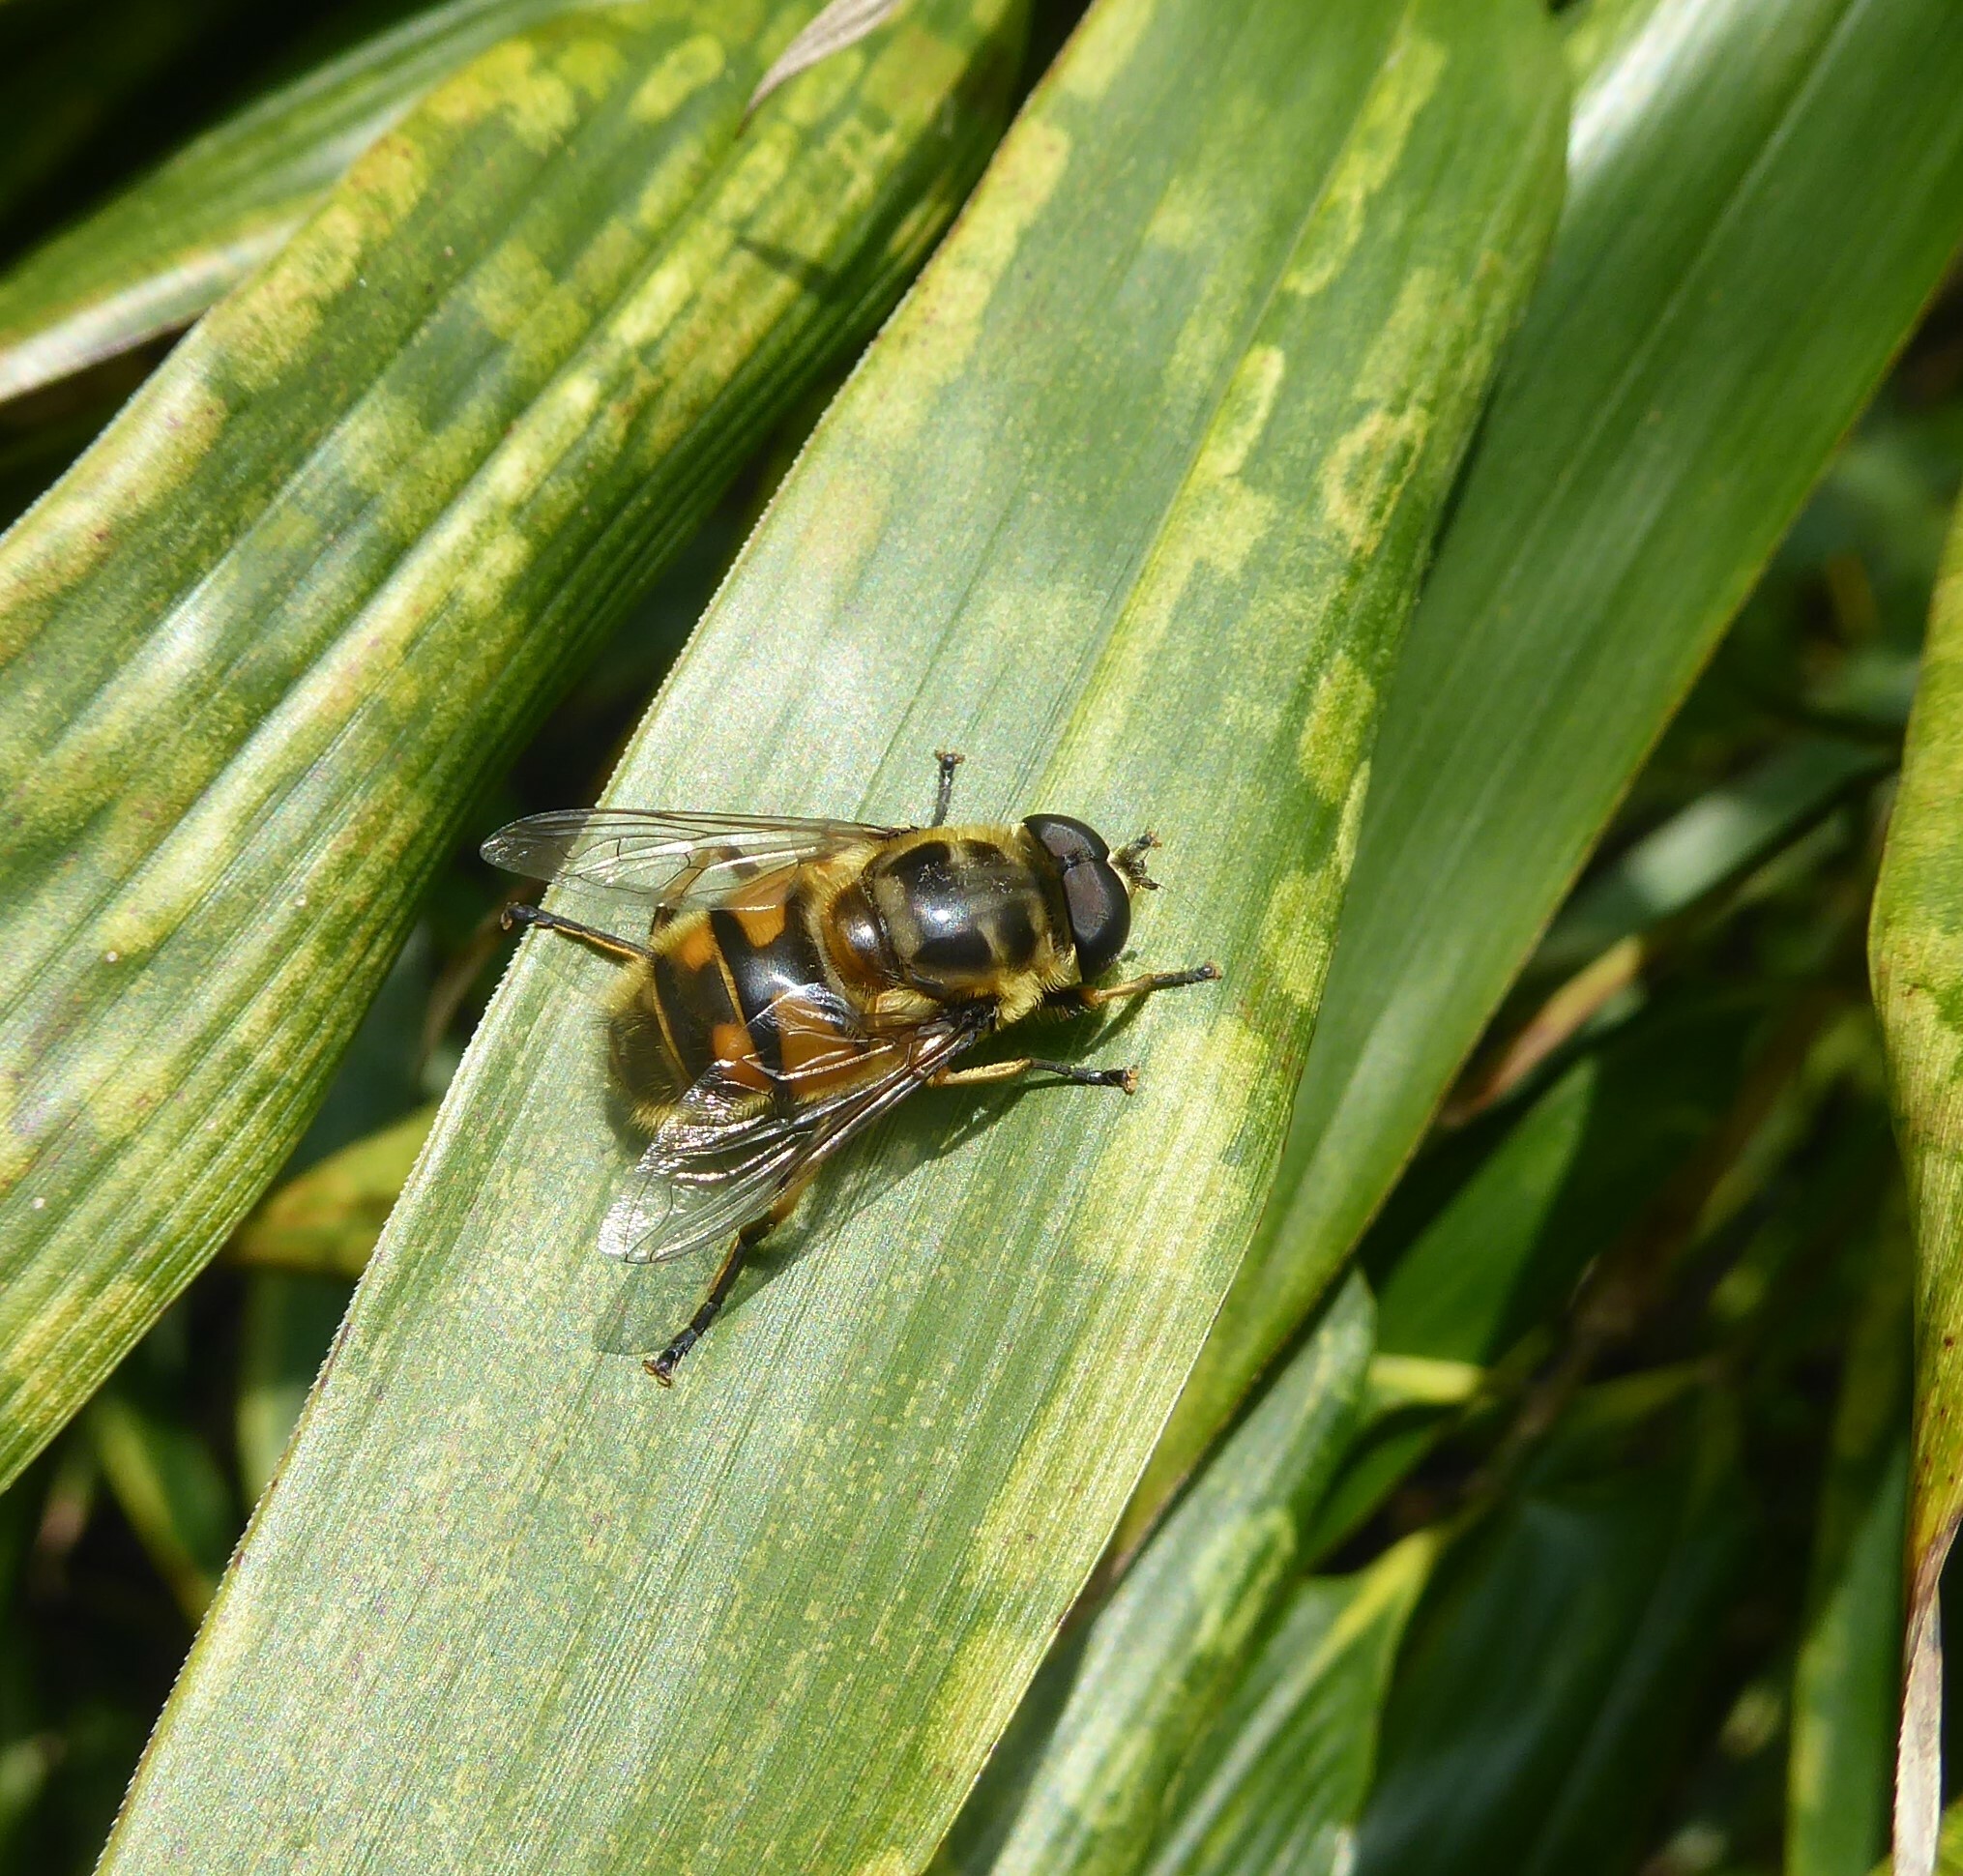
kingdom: Animalia
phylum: Arthropoda
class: Insecta
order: Diptera
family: Syrphidae
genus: Myathropa
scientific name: Myathropa florea
